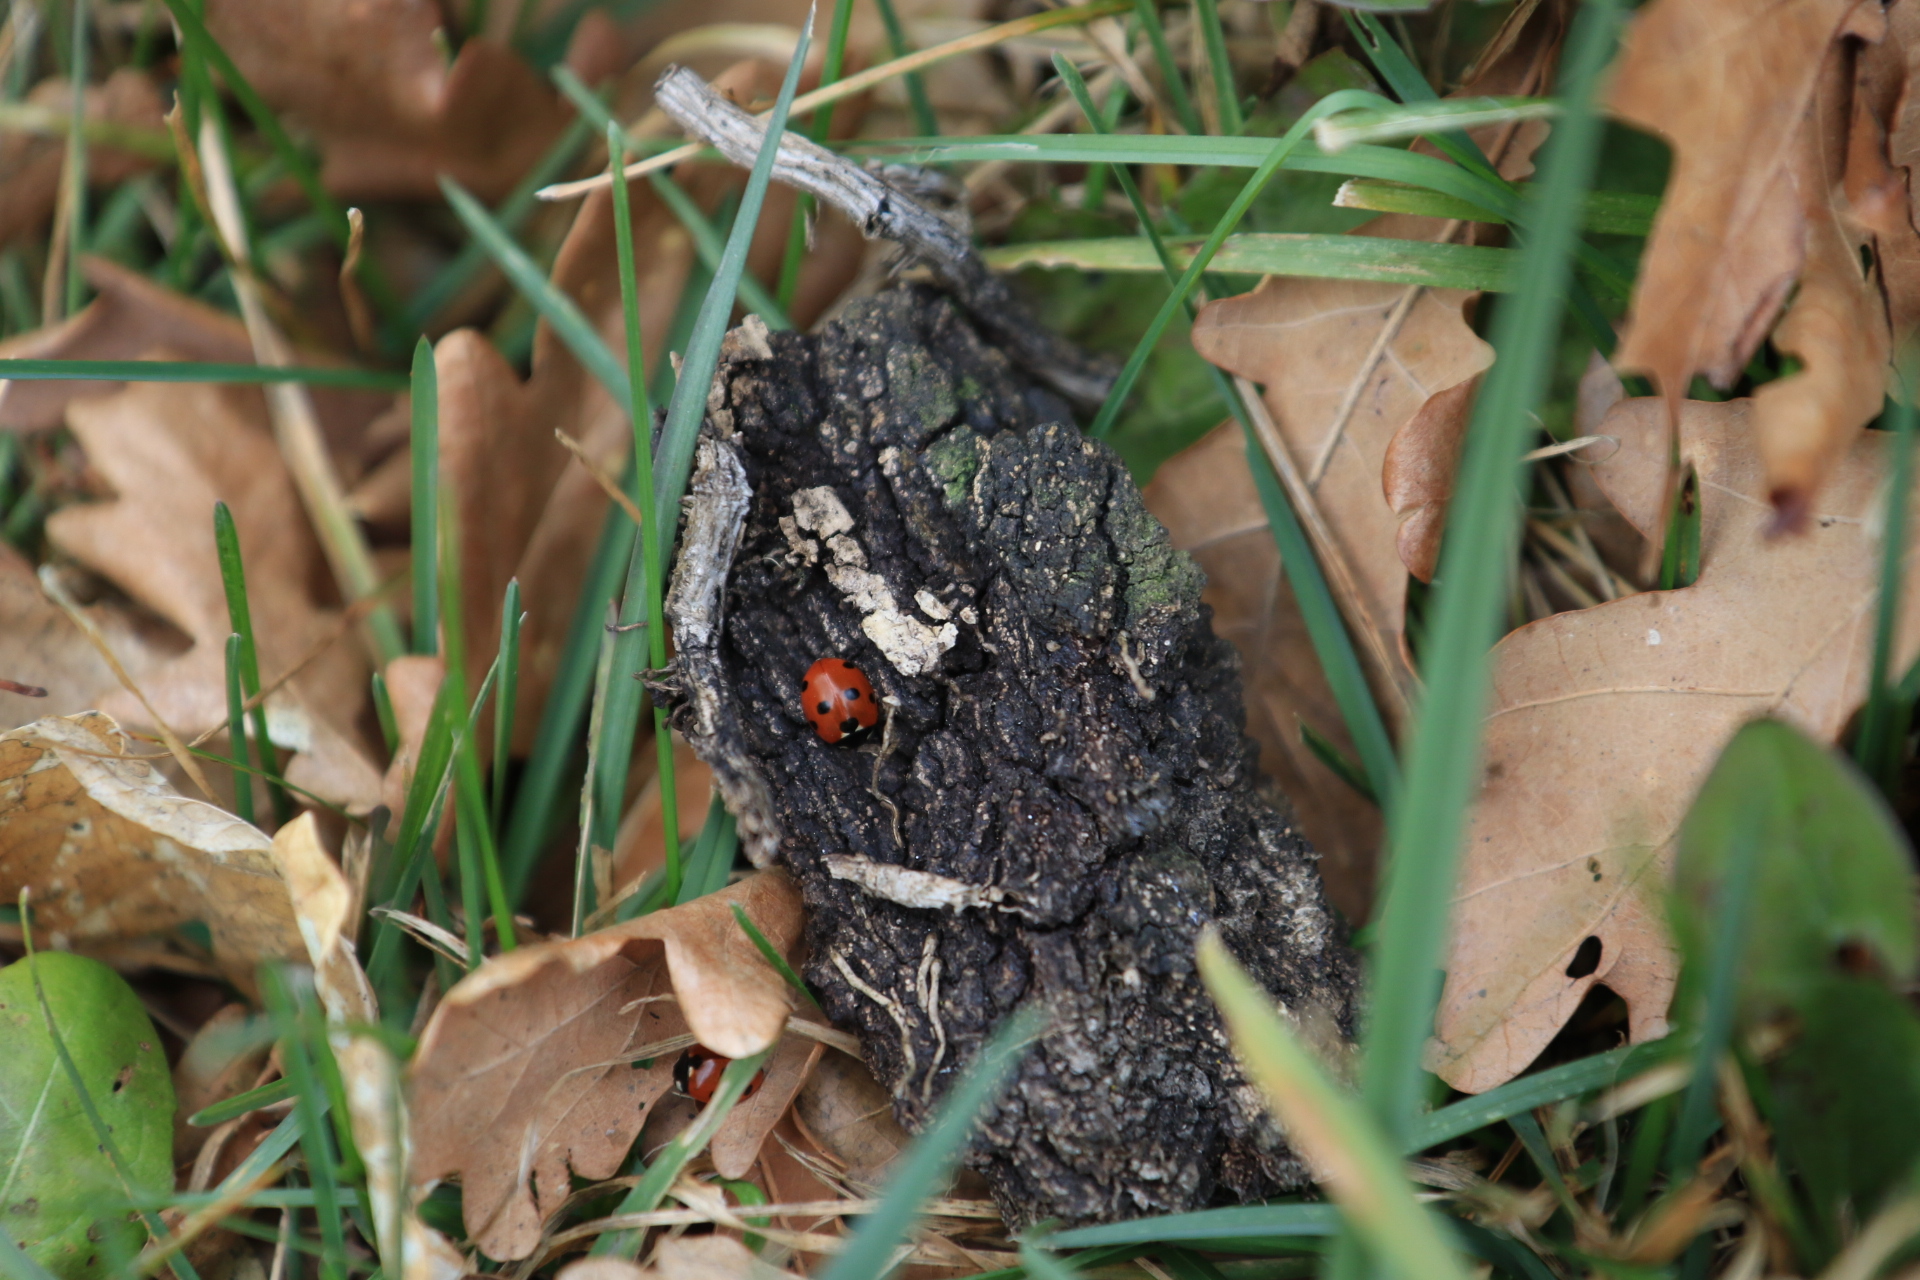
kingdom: Animalia
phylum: Arthropoda
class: Insecta
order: Coleoptera
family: Coccinellidae
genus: Coccinella
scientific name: Coccinella septempunctata
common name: Sevenspotted lady beetle
